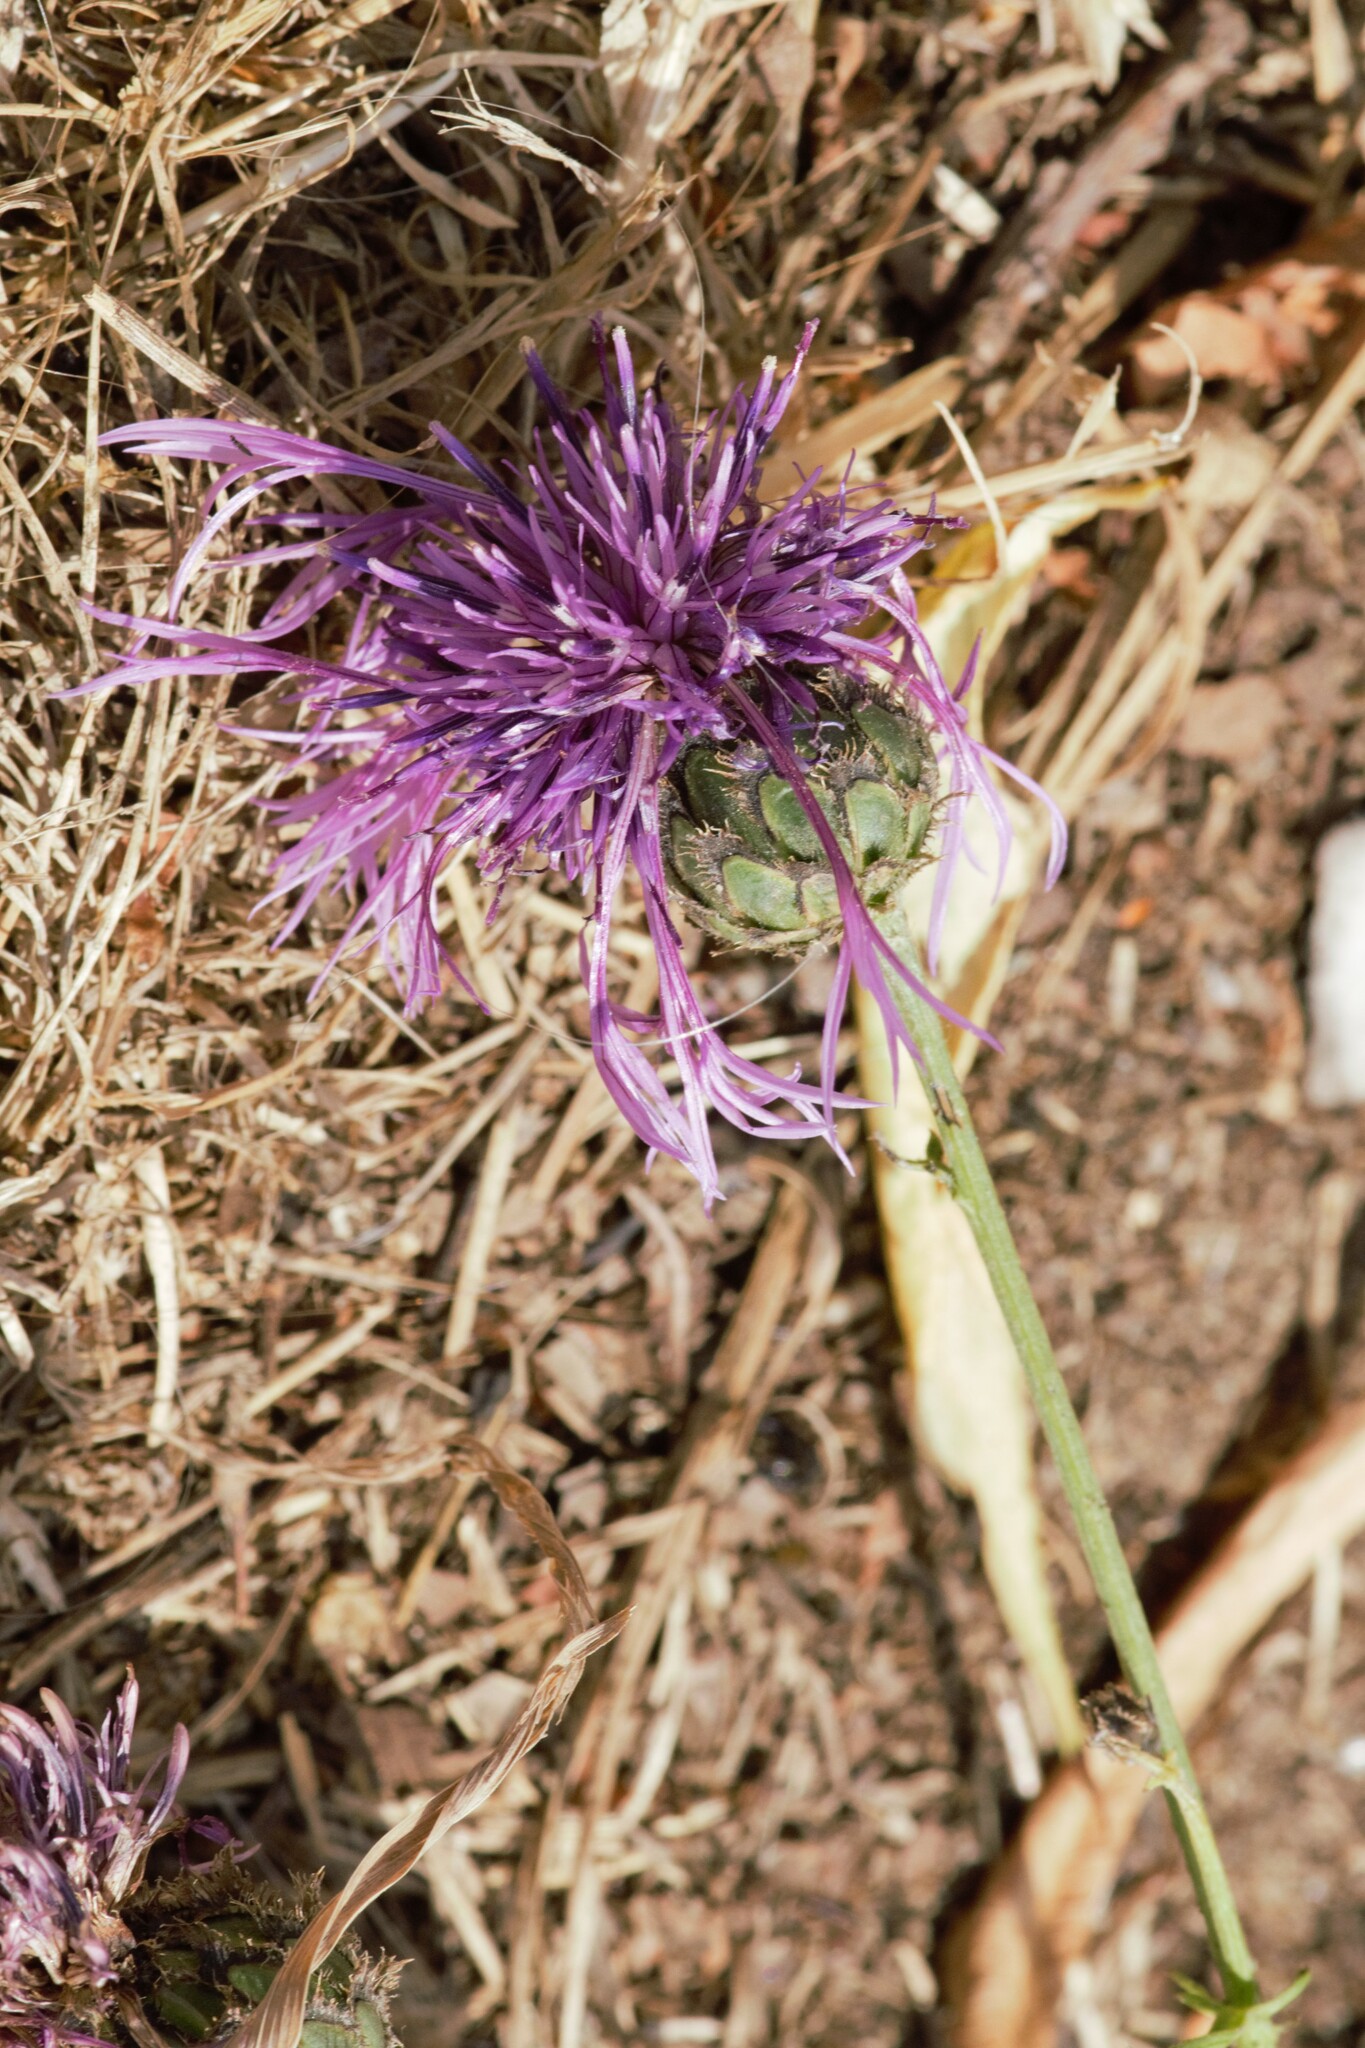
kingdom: Plantae
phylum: Tracheophyta
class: Magnoliopsida
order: Asterales
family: Asteraceae
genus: Centaurea
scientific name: Centaurea scabiosa
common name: Greater knapweed
